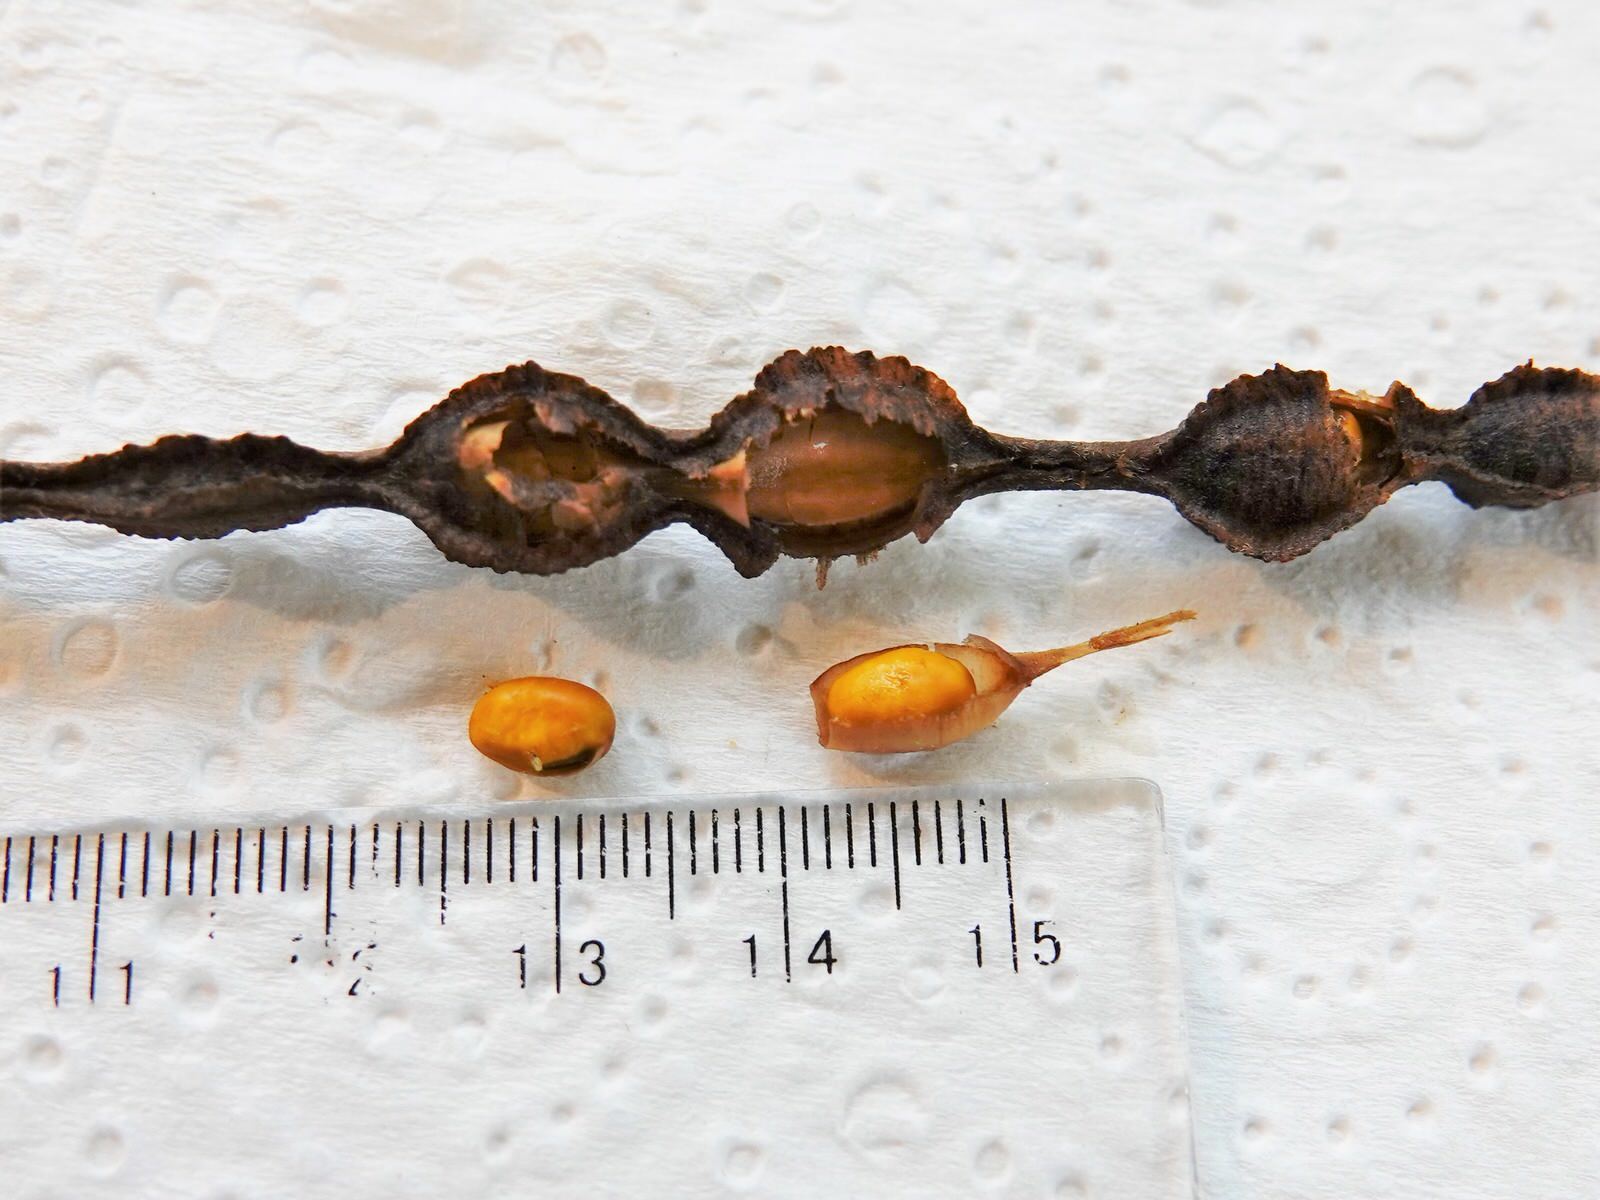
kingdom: Plantae
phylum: Tracheophyta
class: Magnoliopsida
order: Fabales
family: Fabaceae
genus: Sophora
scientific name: Sophora chathamica
